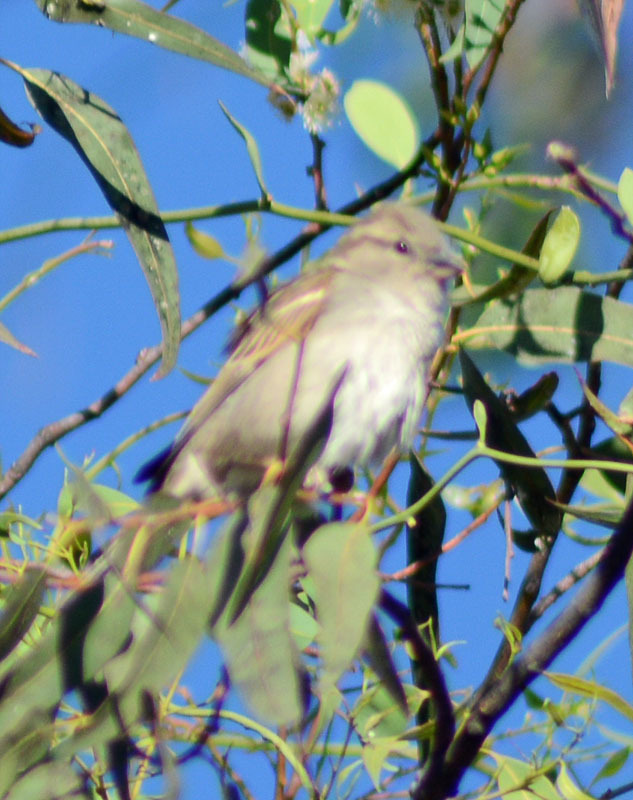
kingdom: Animalia
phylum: Chordata
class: Aves
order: Passeriformes
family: Passeridae
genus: Passer
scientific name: Passer domesticus
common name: House sparrow
